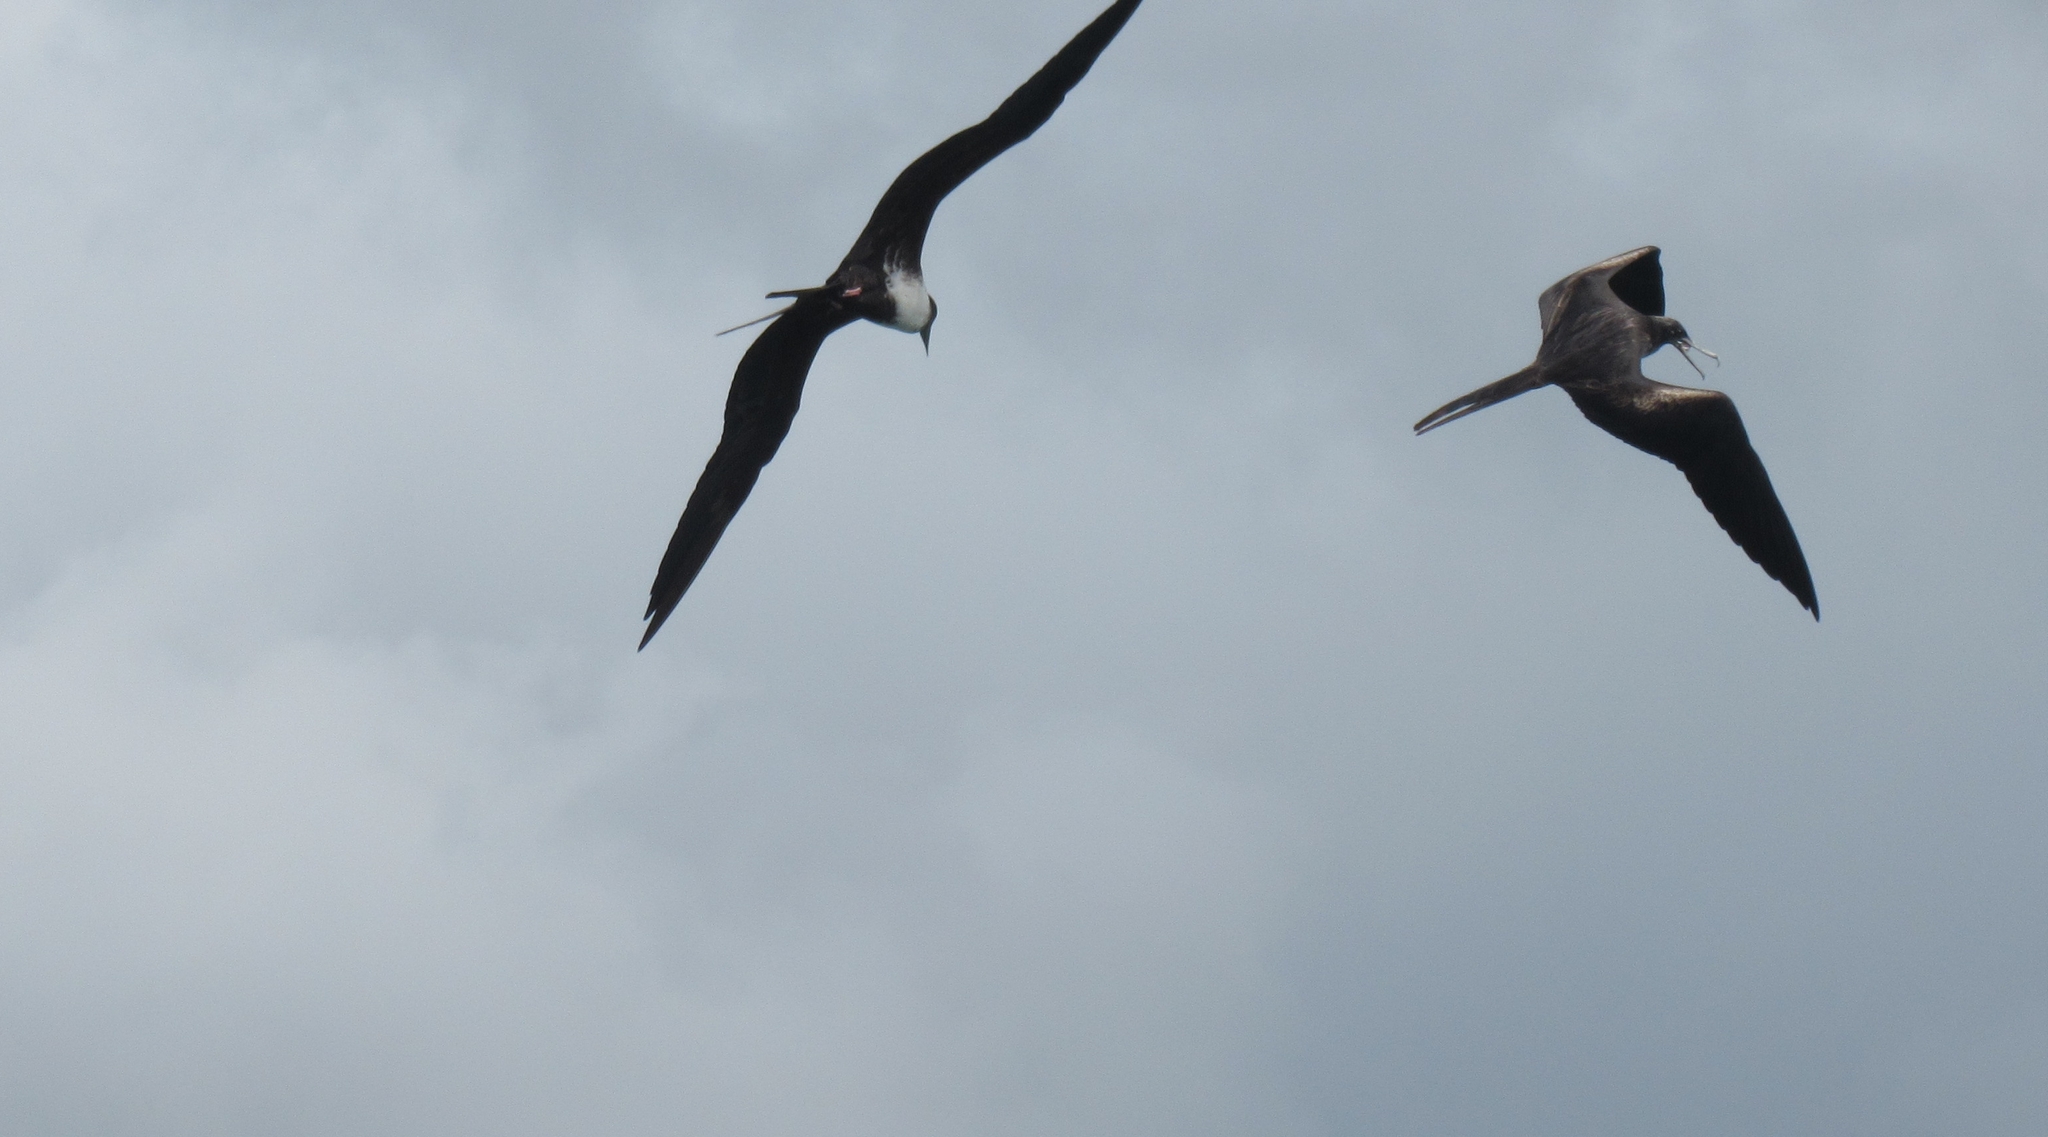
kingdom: Animalia
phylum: Chordata
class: Aves
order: Suliformes
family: Fregatidae
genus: Fregata
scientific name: Fregata magnificens
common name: Magnificent frigatebird
